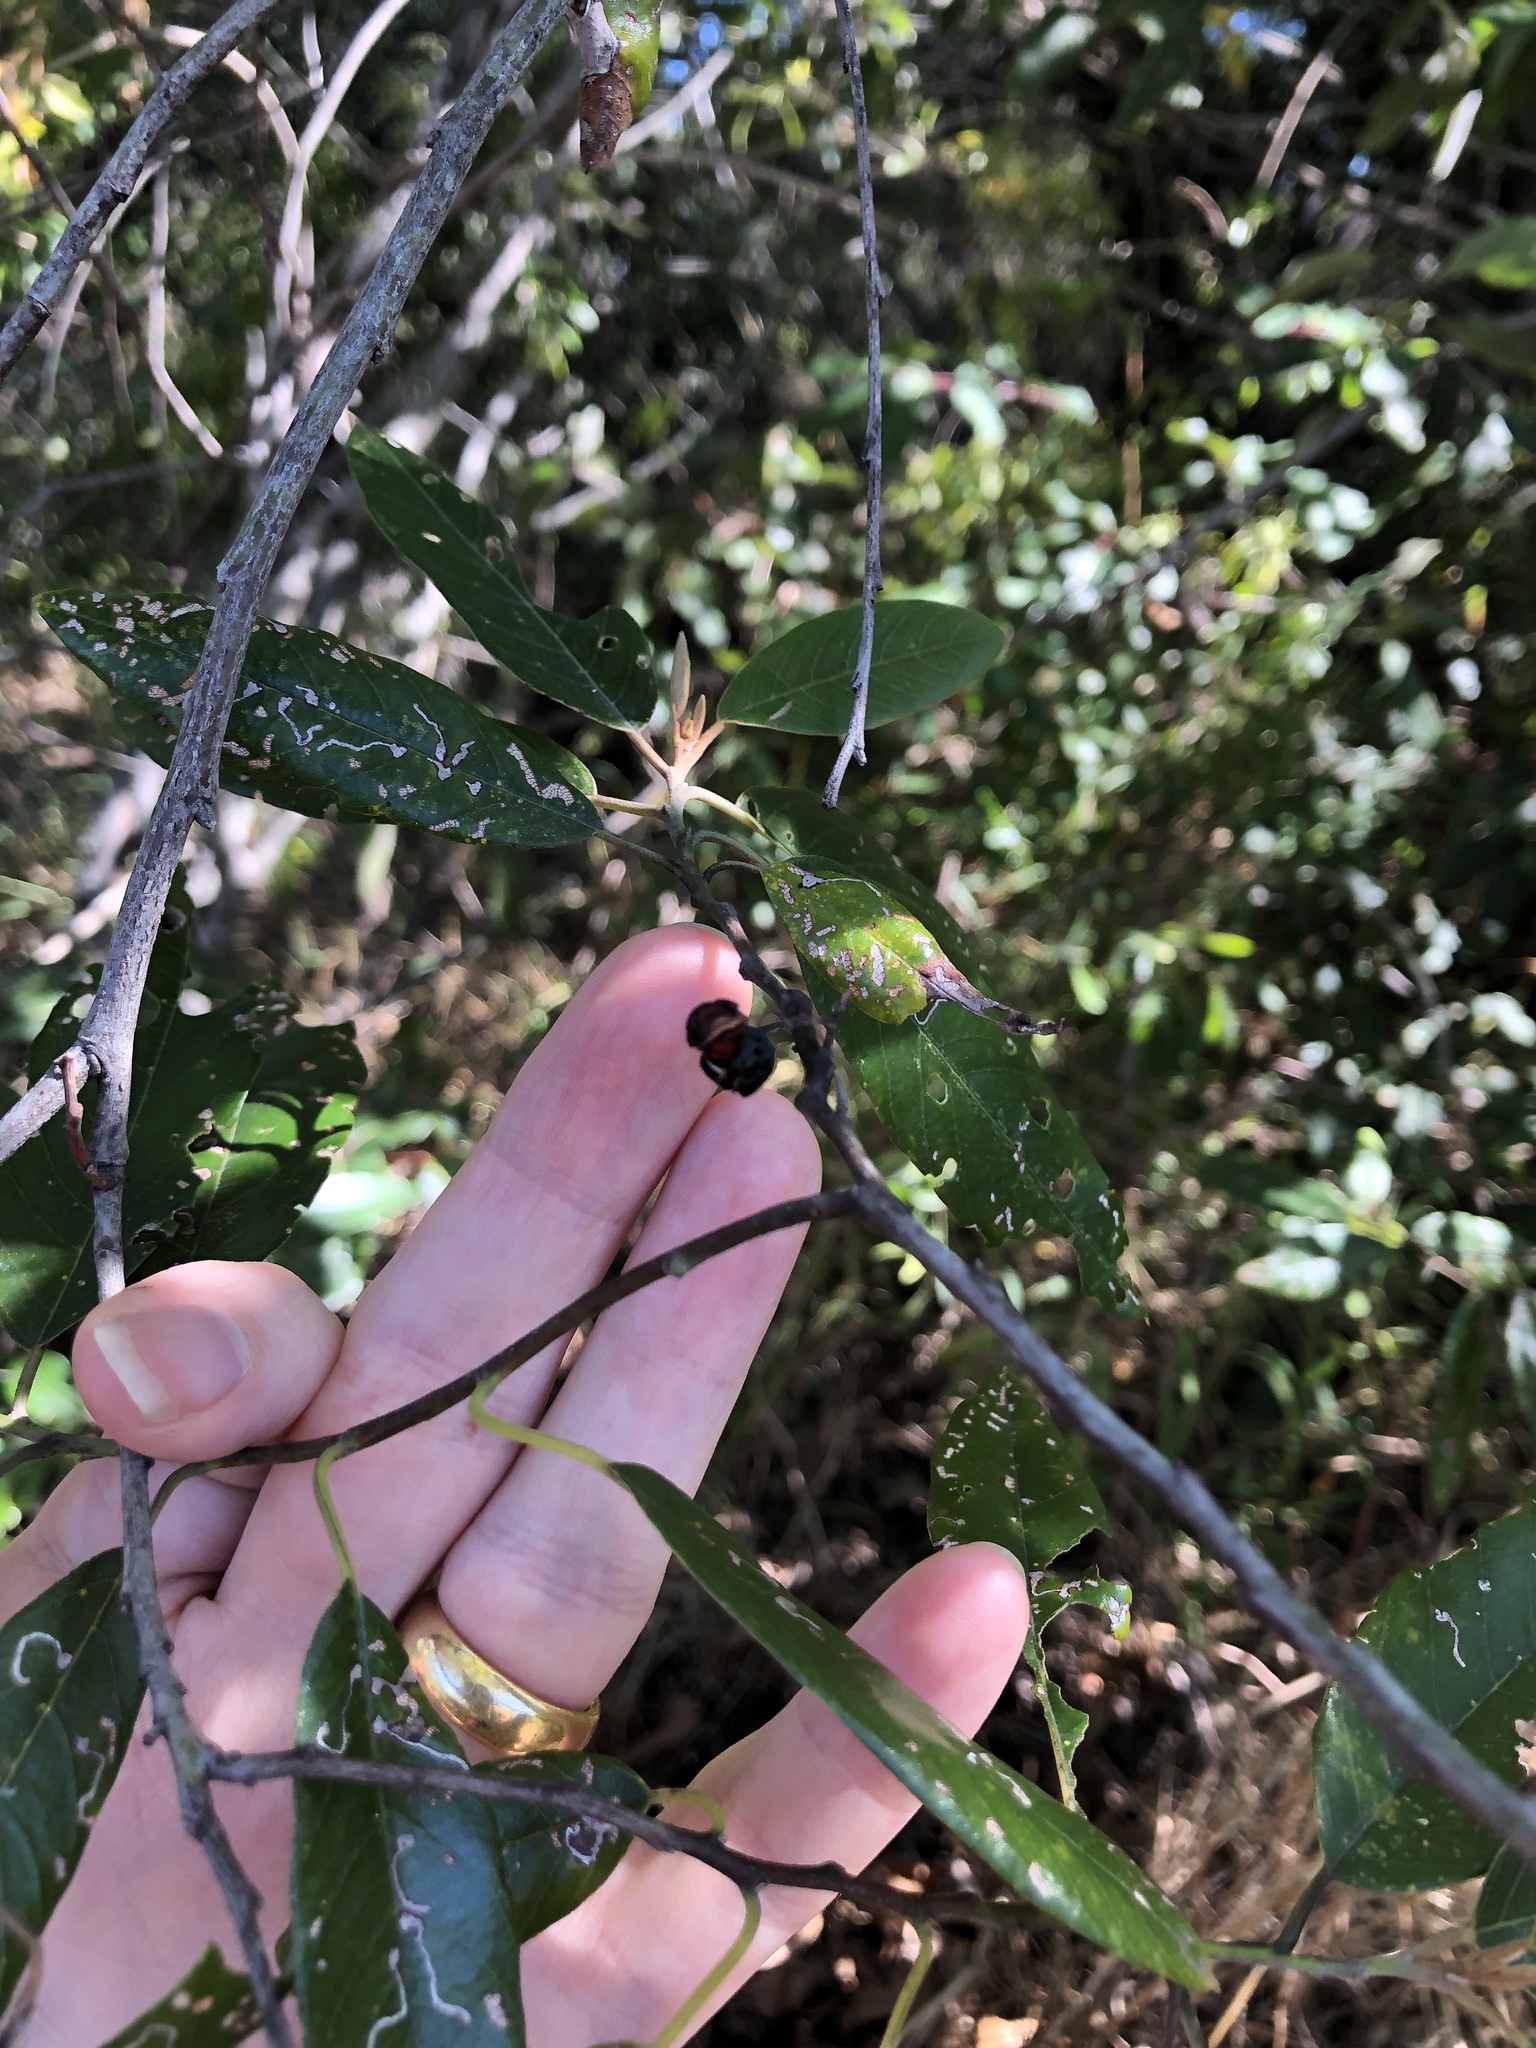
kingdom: Plantae
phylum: Tracheophyta
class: Magnoliopsida
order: Rosales
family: Rhamnaceae
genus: Alphitonia
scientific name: Alphitonia excelsa
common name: Red ash
